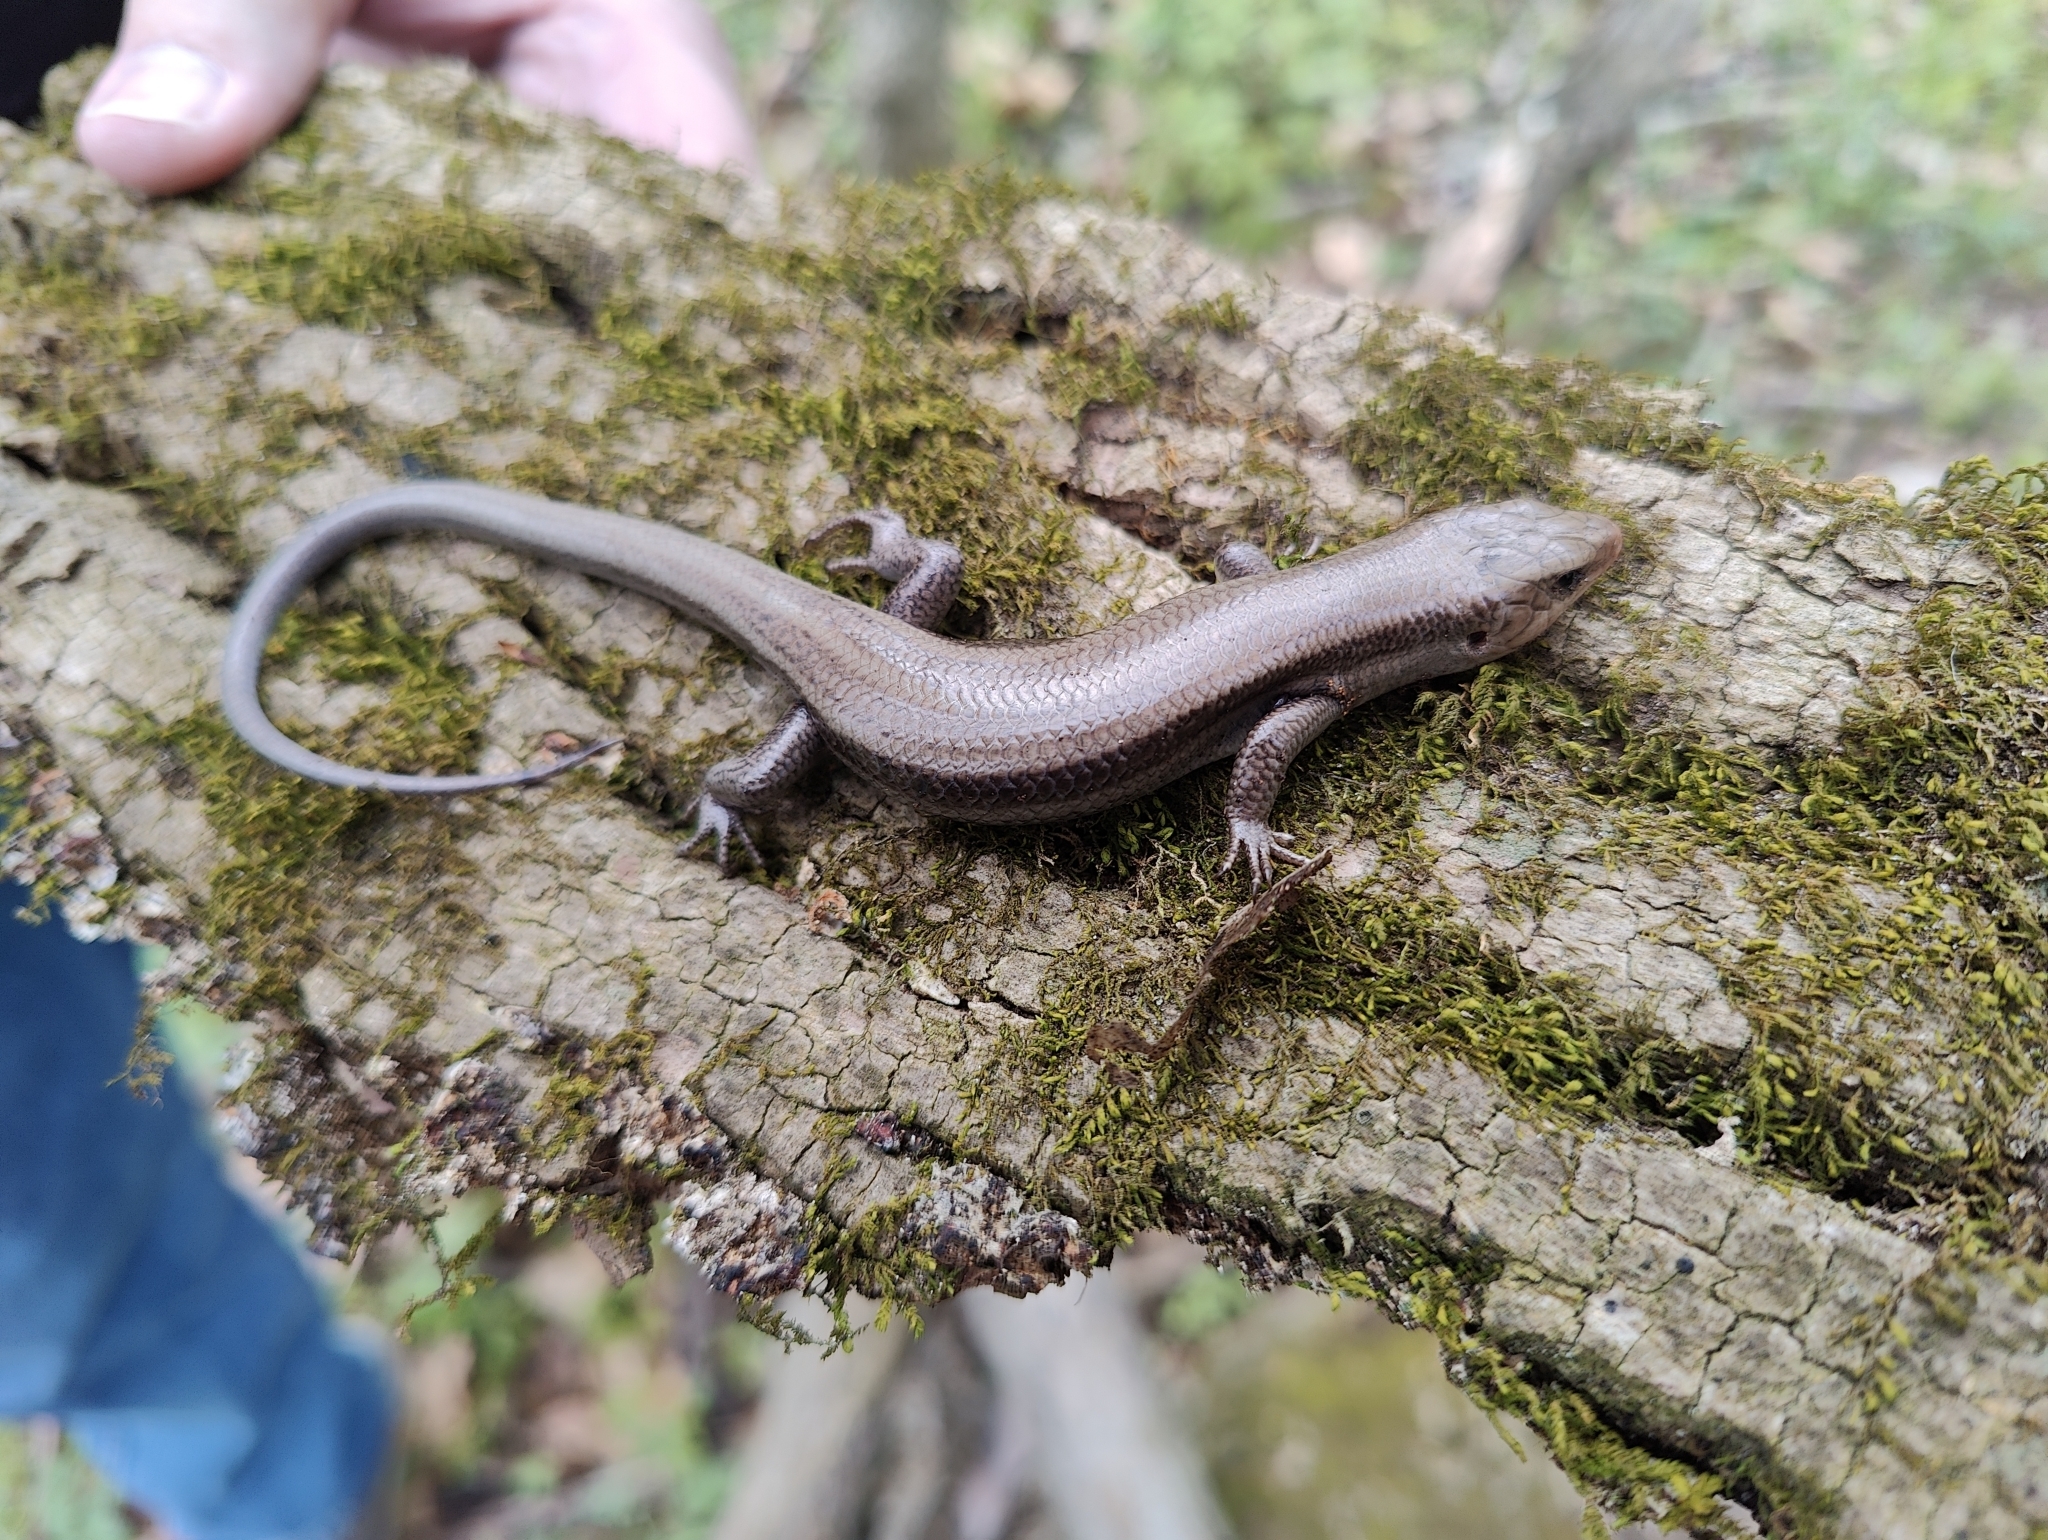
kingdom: Animalia
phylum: Chordata
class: Squamata
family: Scincidae
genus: Plestiodon
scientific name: Plestiodon fasciatus
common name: Five-lined skink
